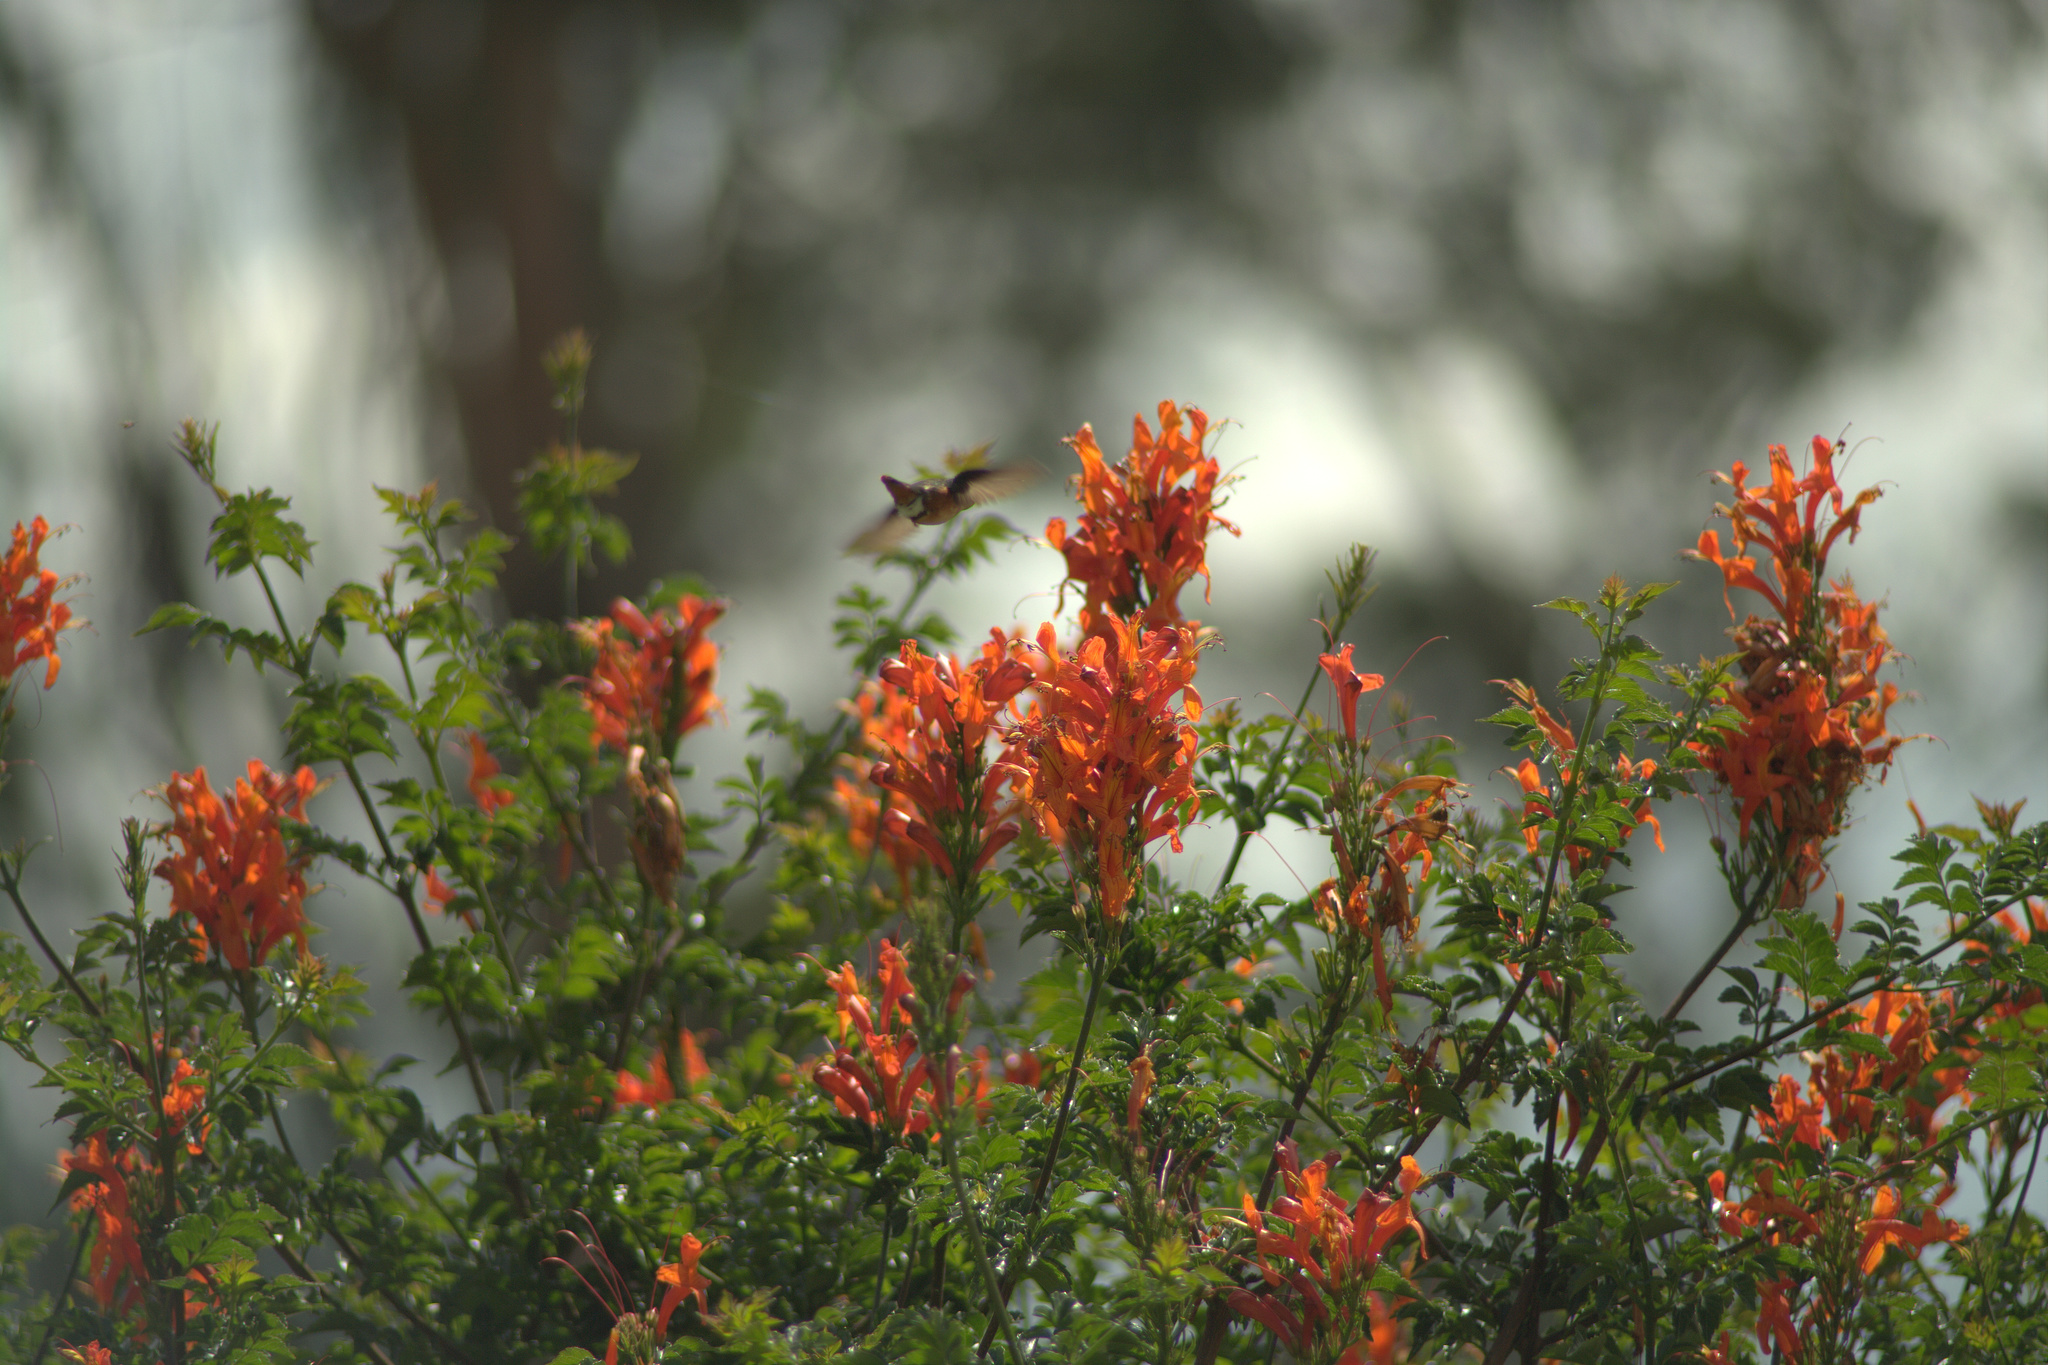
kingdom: Animalia
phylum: Chordata
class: Aves
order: Apodiformes
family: Trochilidae
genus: Chaetocercus
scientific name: Chaetocercus mulsant
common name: White-bellied woodstar
